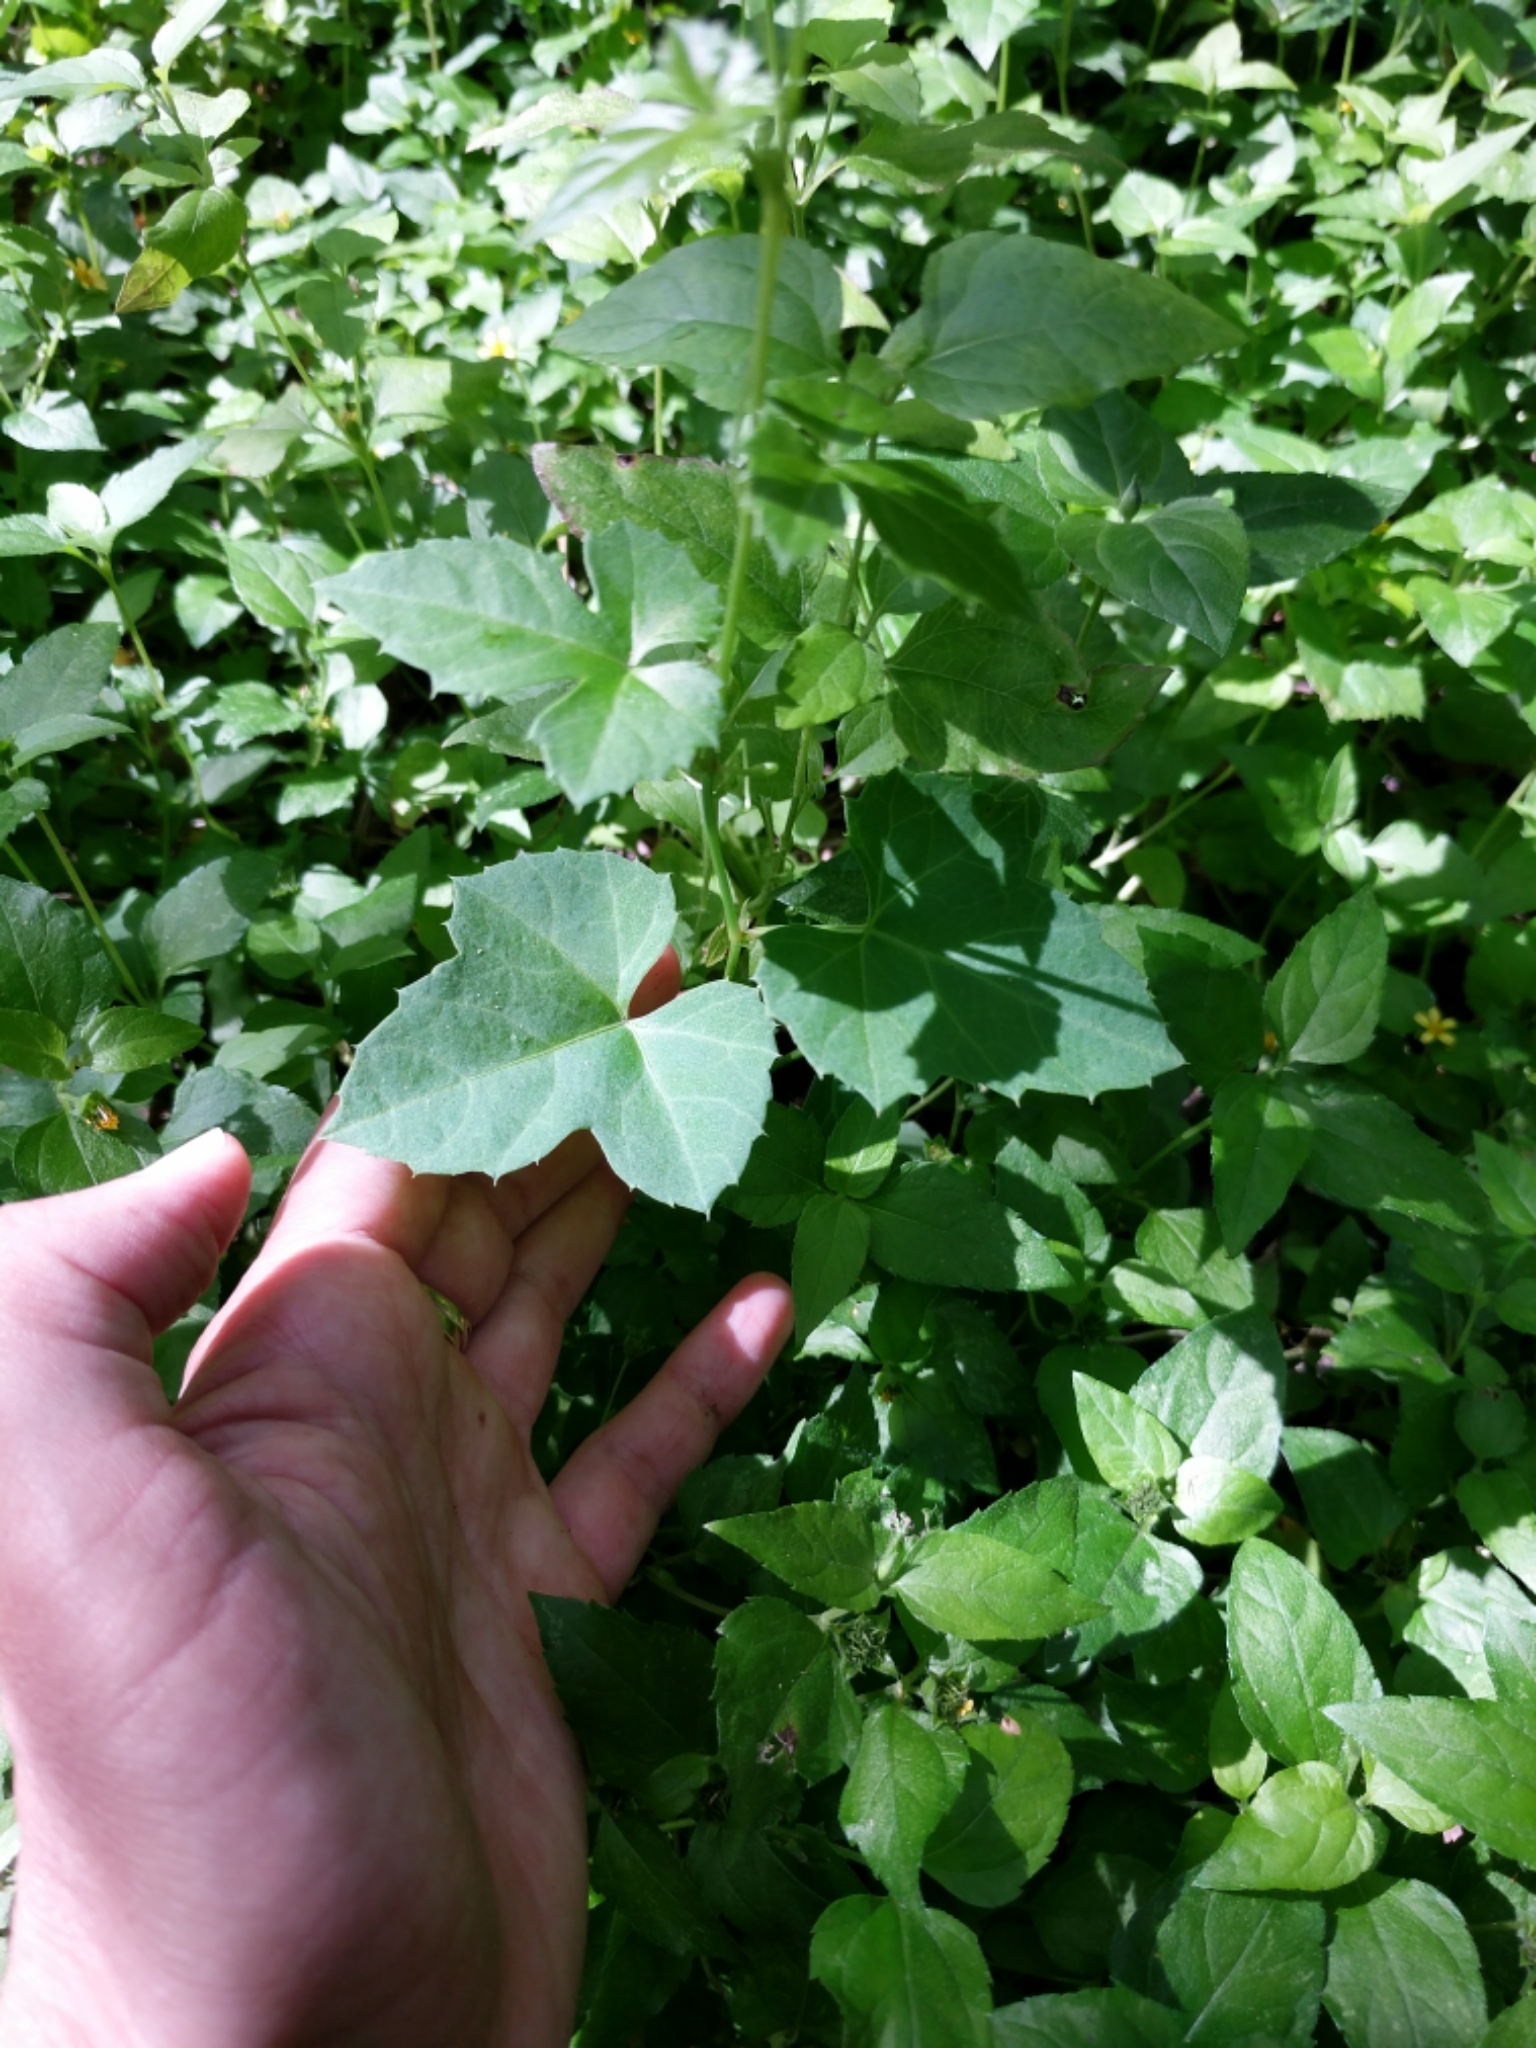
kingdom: Plantae
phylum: Tracheophyta
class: Magnoliopsida
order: Vitales
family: Vitaceae
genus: Cissus
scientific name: Cissus trifoliata
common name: Vine-sorrel
